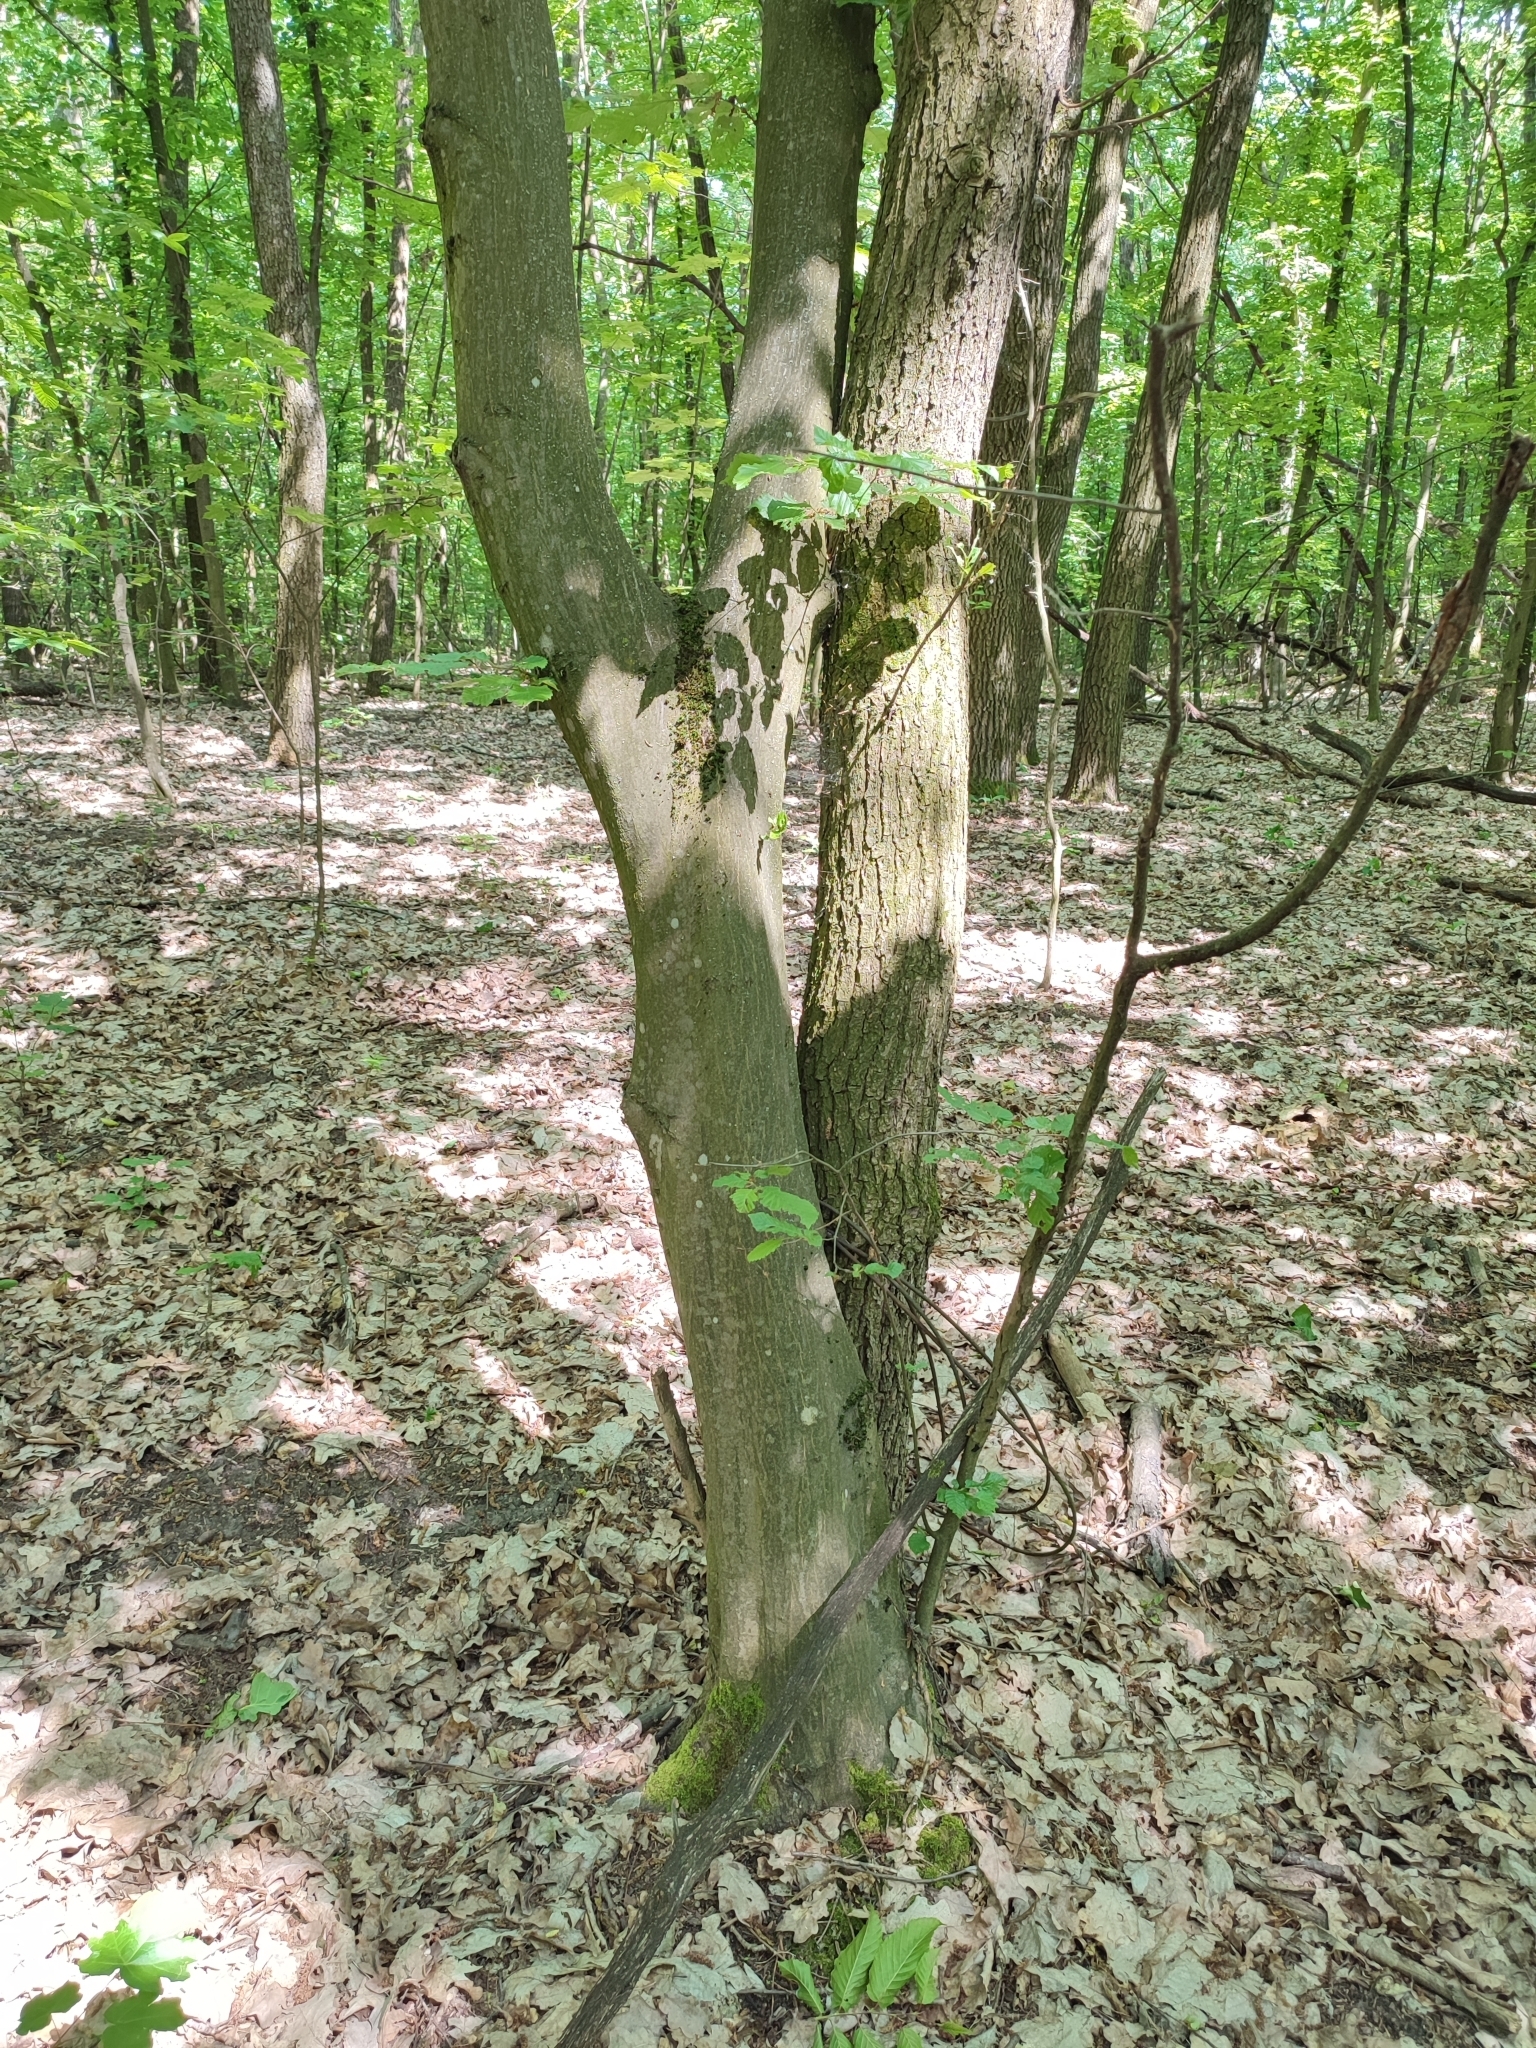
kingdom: Plantae
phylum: Tracheophyta
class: Magnoliopsida
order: Fagales
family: Betulaceae
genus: Carpinus
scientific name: Carpinus betulus
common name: Hornbeam
